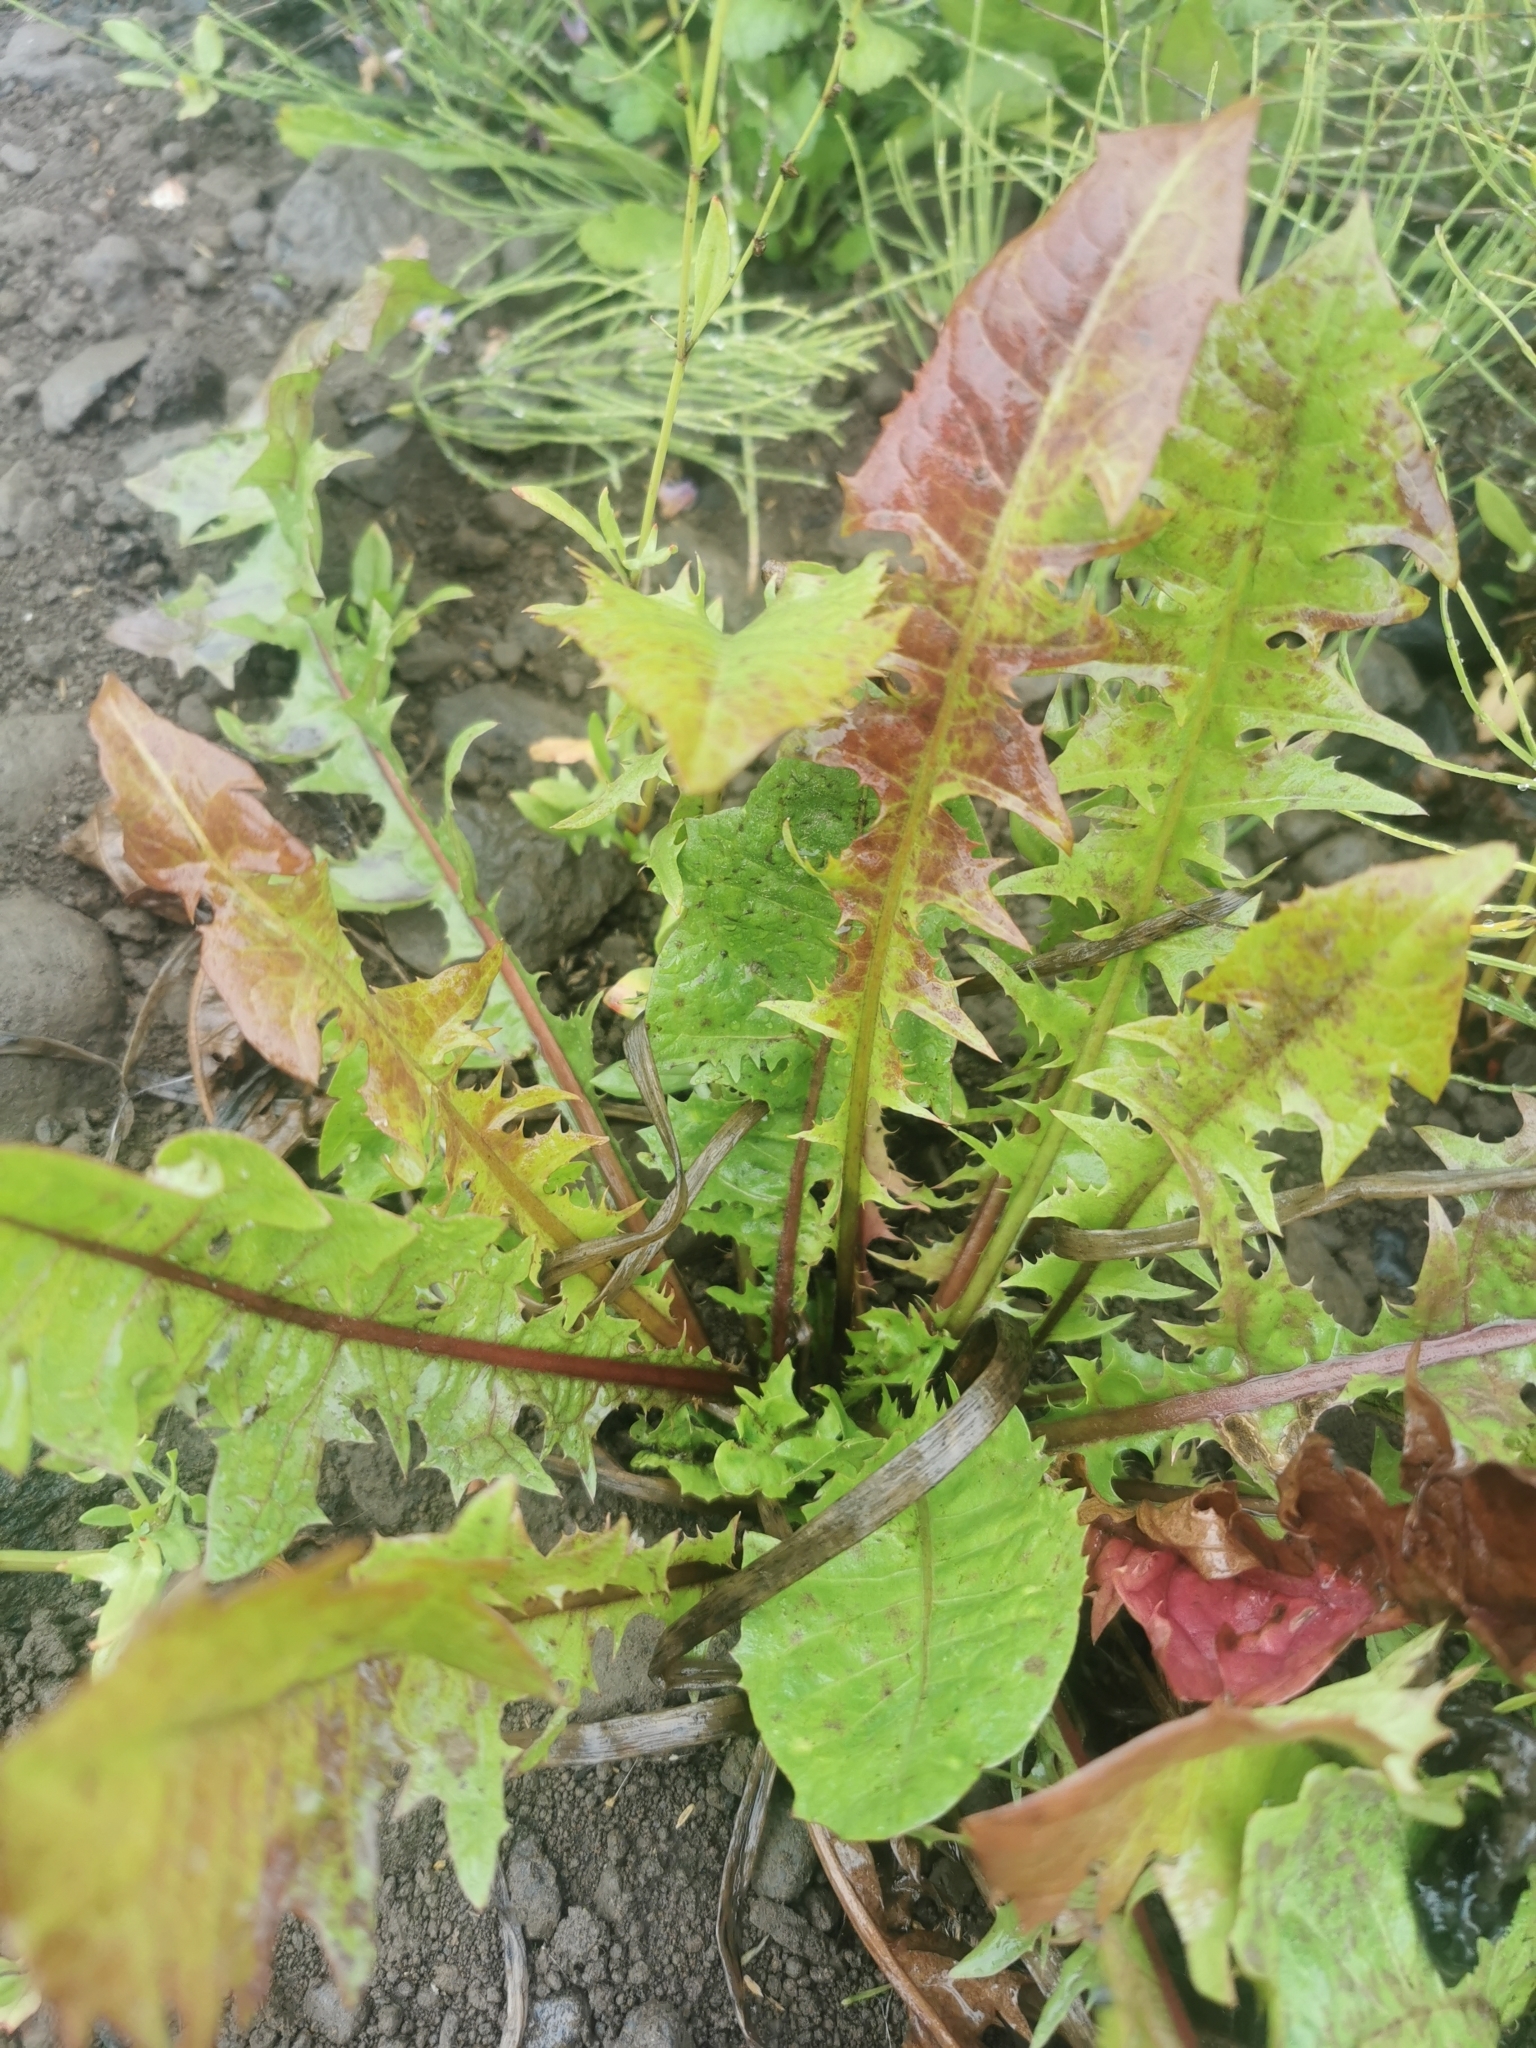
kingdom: Plantae
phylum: Tracheophyta
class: Magnoliopsida
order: Asterales
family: Asteraceae
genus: Taraxacum
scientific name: Taraxacum officinale
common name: Common dandelion
